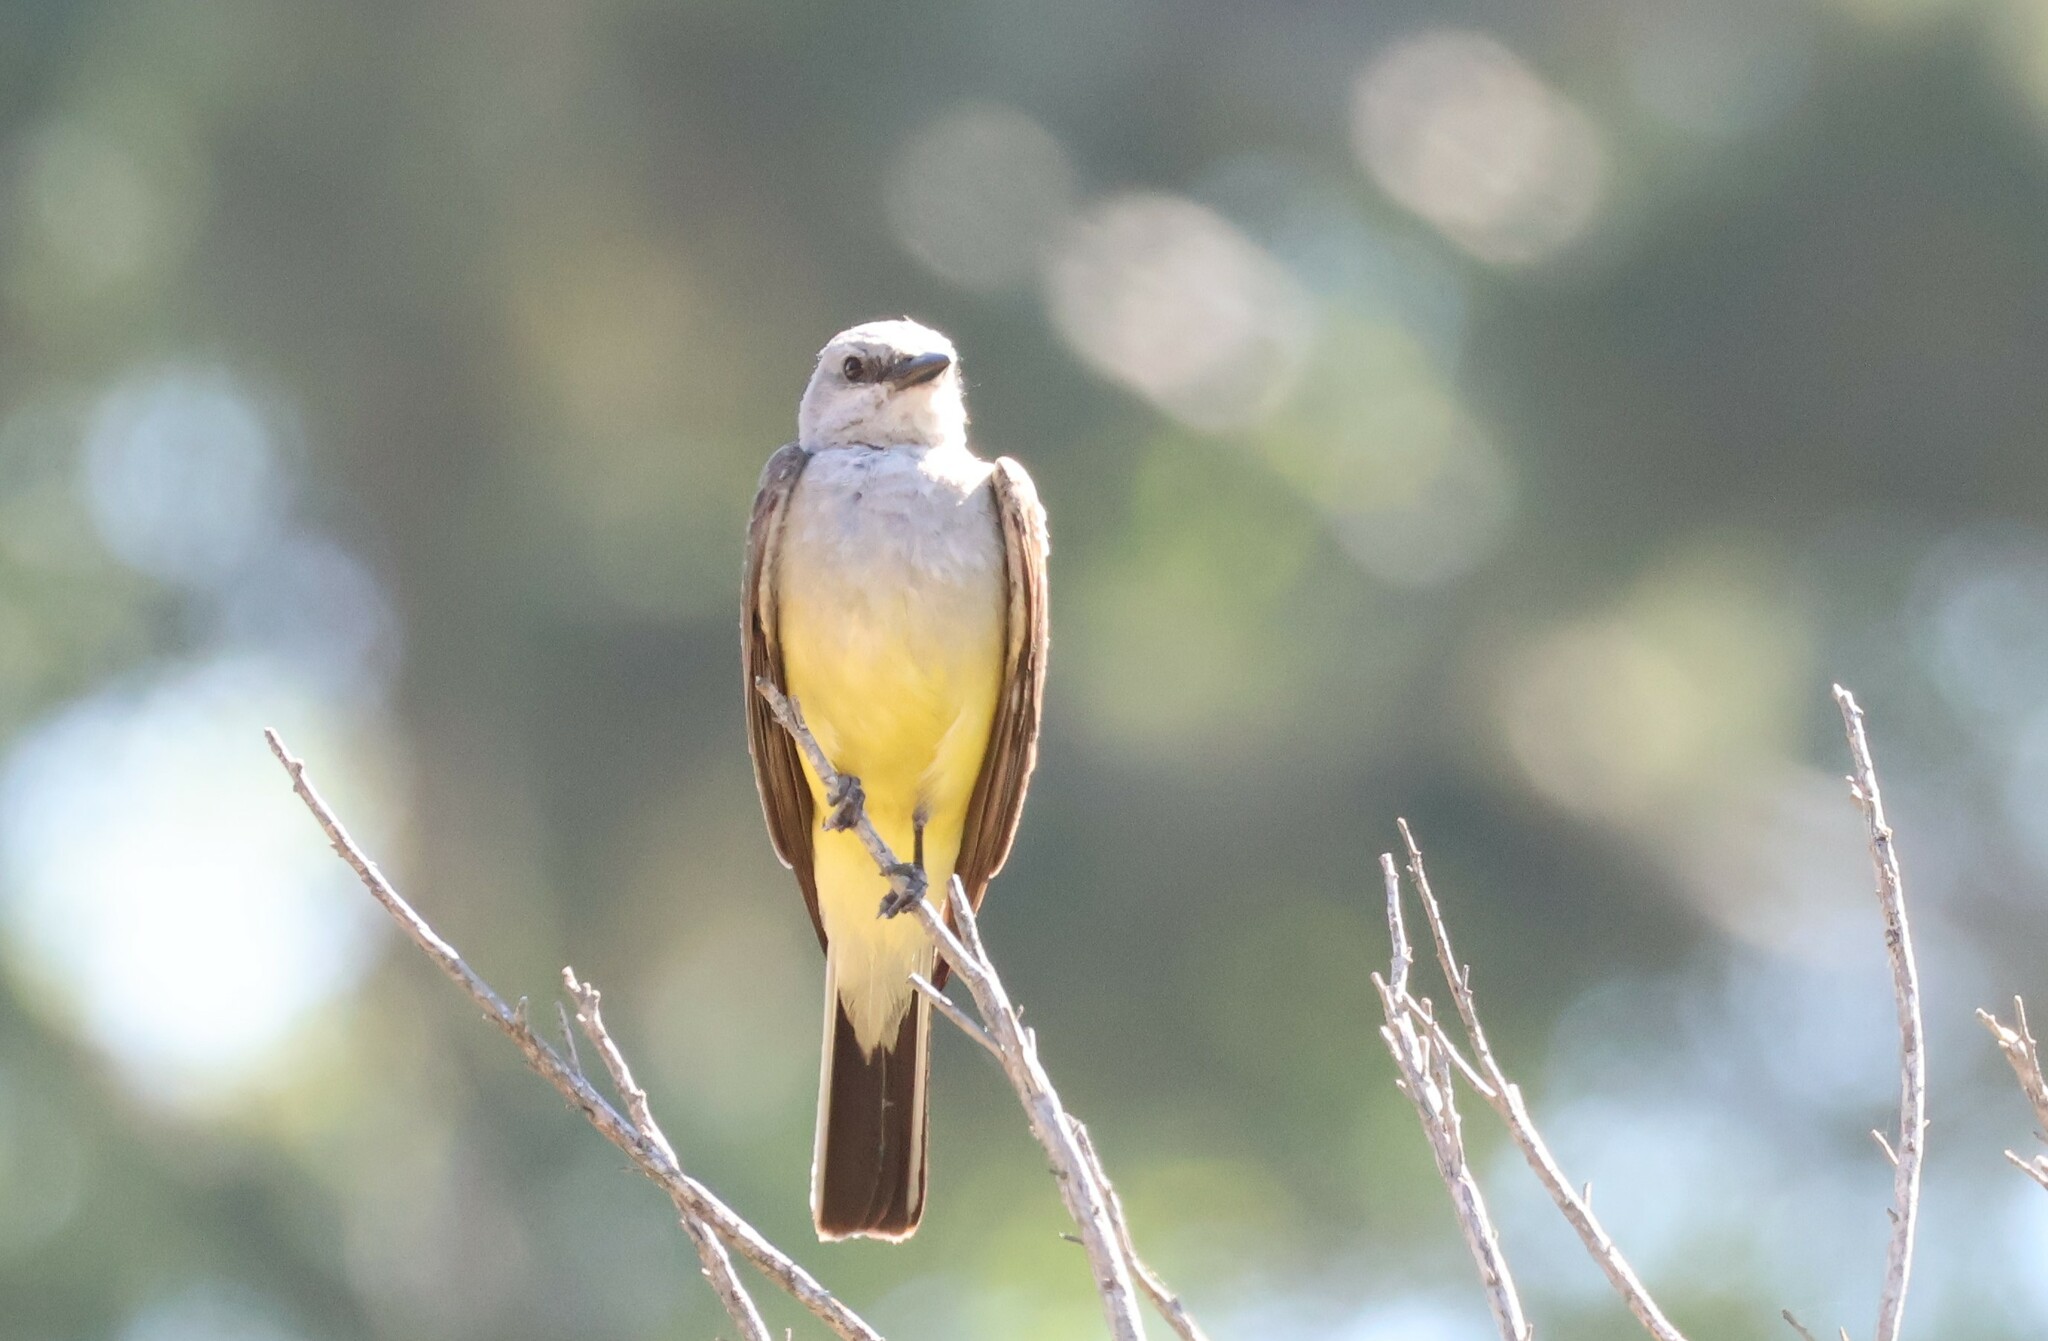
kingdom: Animalia
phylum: Chordata
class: Aves
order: Passeriformes
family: Tyrannidae
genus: Tyrannus
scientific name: Tyrannus verticalis
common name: Western kingbird
